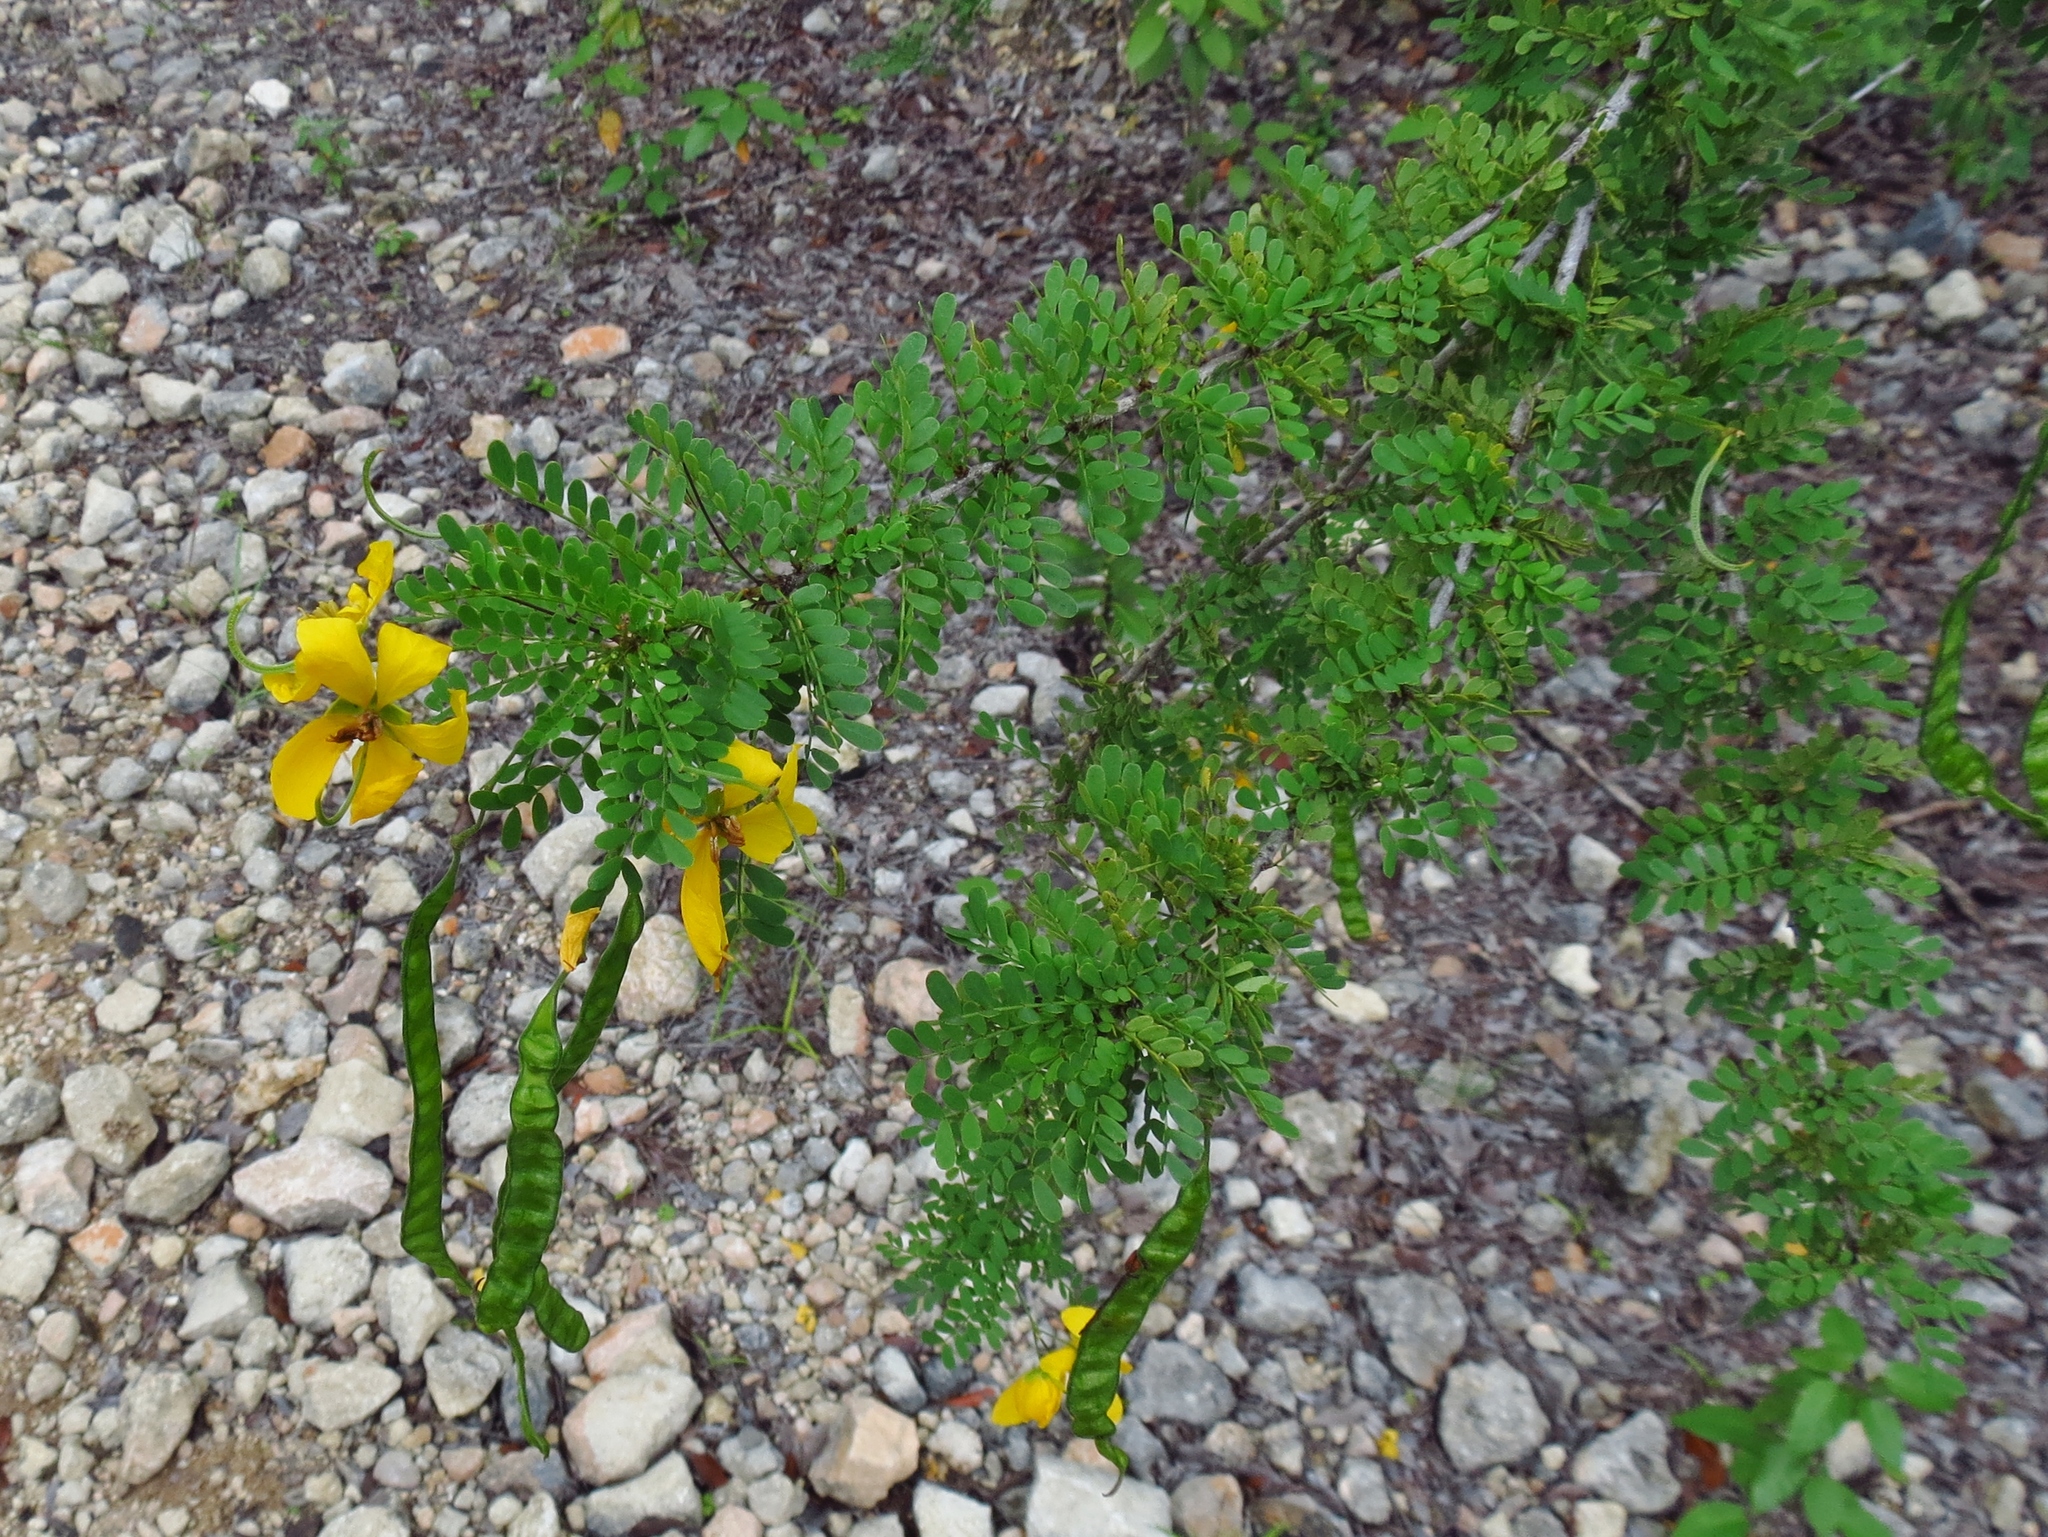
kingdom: Plantae
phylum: Tracheophyta
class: Magnoliopsida
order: Fabales
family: Fabaceae
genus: Senna
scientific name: Senna polyphylla
